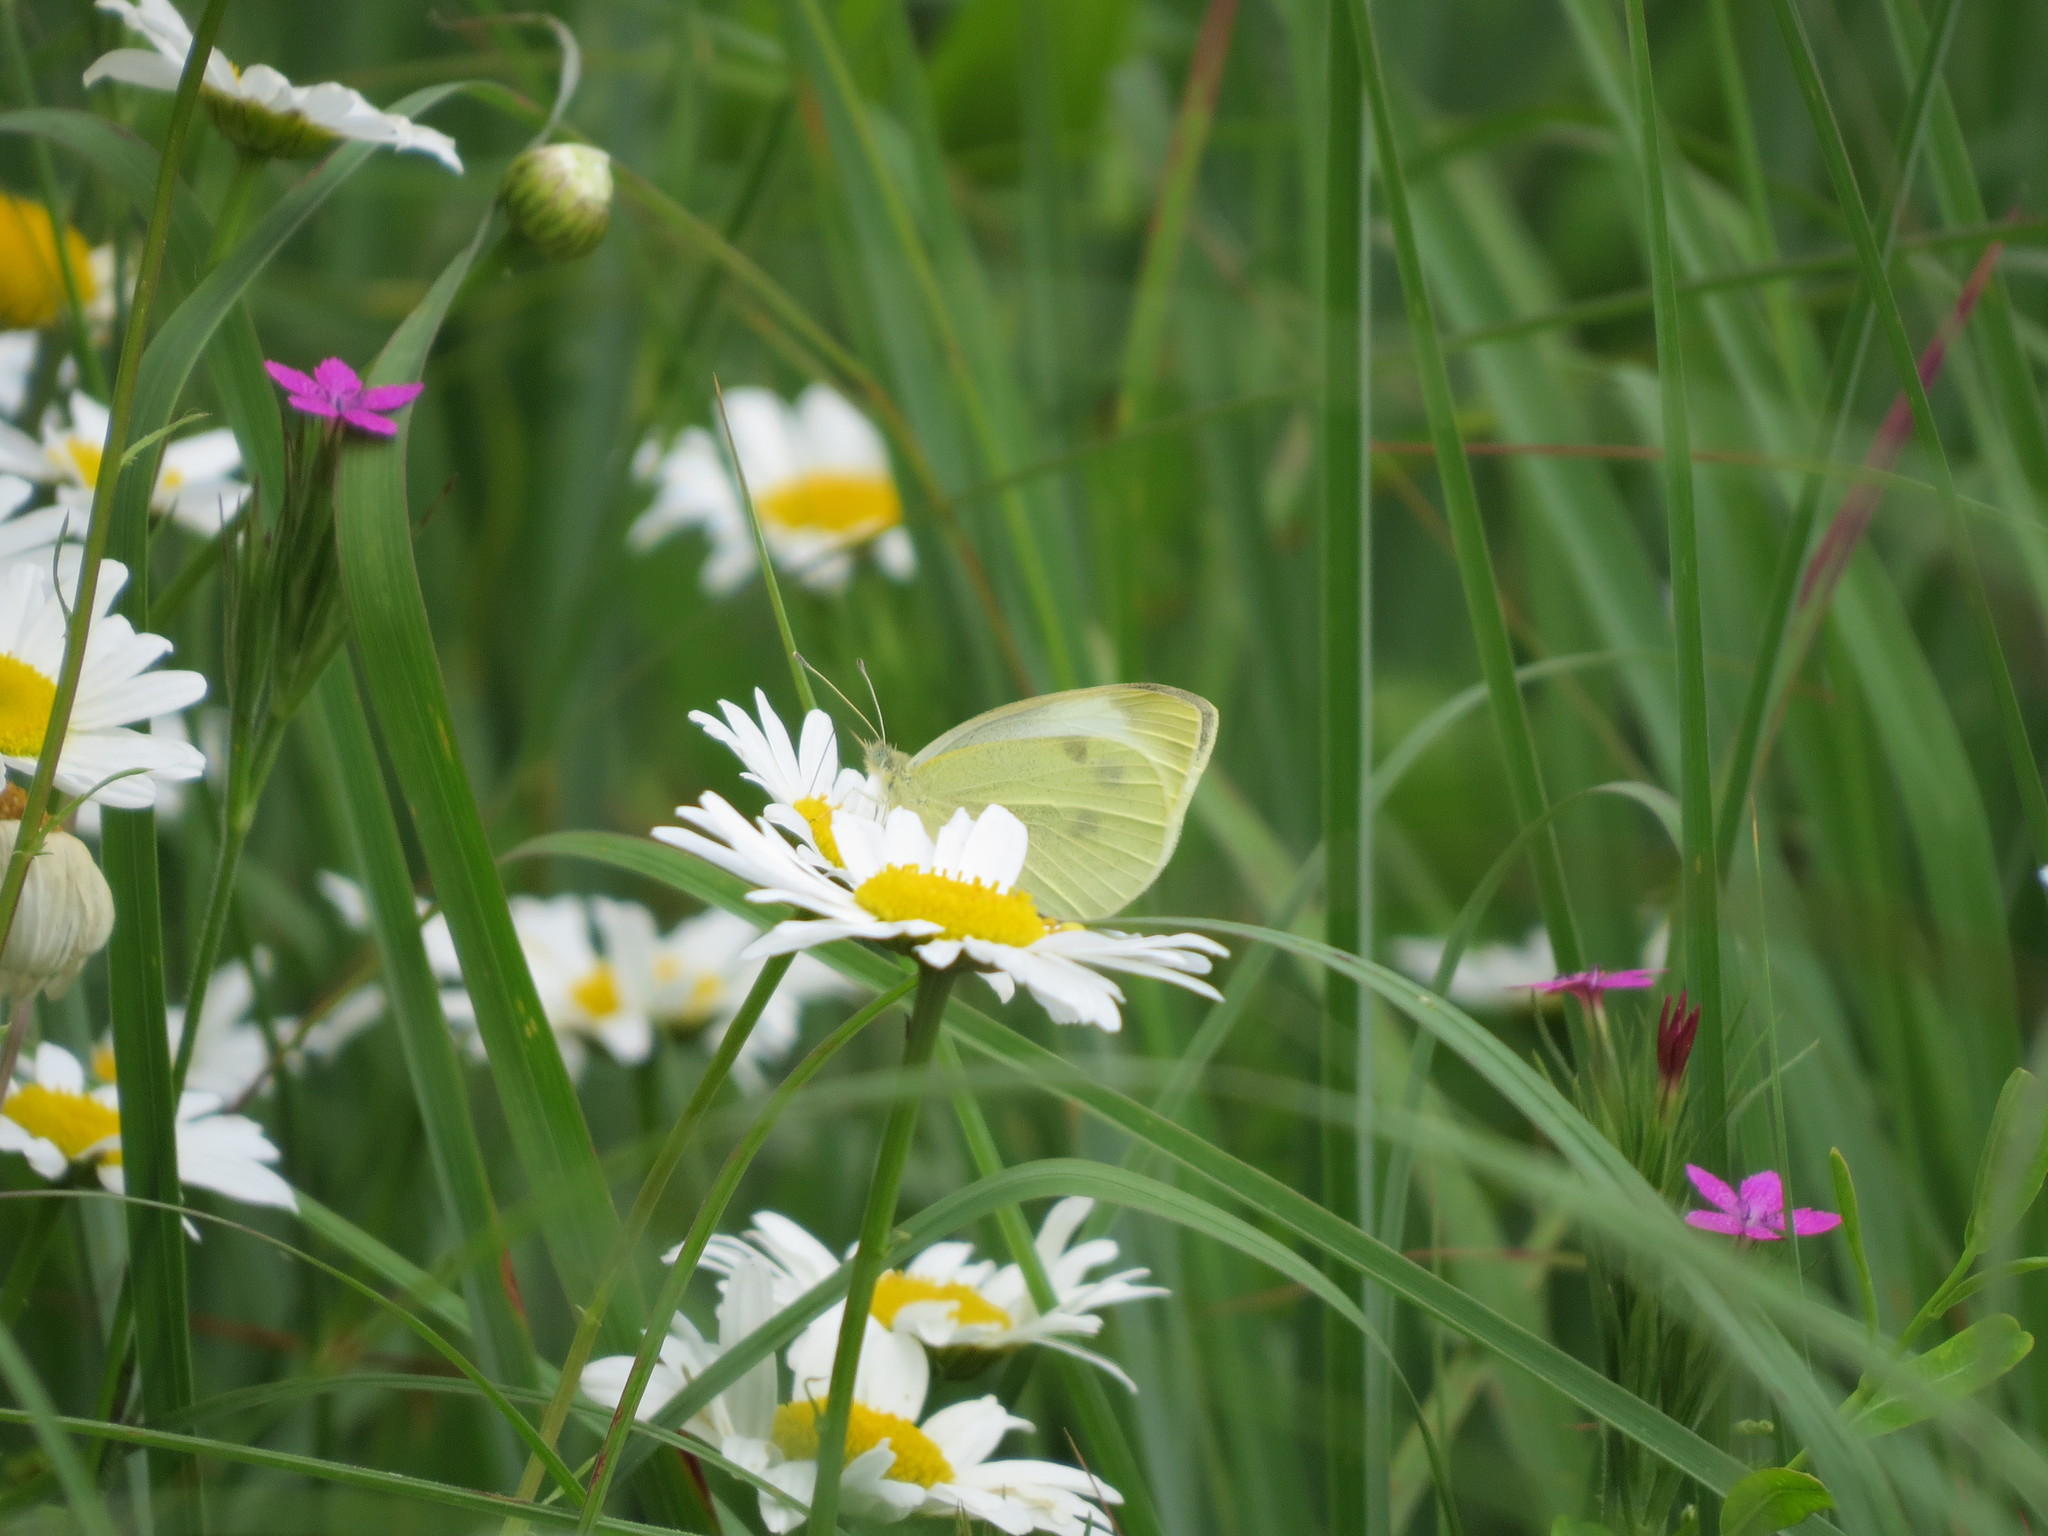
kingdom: Animalia
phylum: Arthropoda
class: Insecta
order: Lepidoptera
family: Pieridae
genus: Pieris
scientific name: Pieris rapae
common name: Small white
